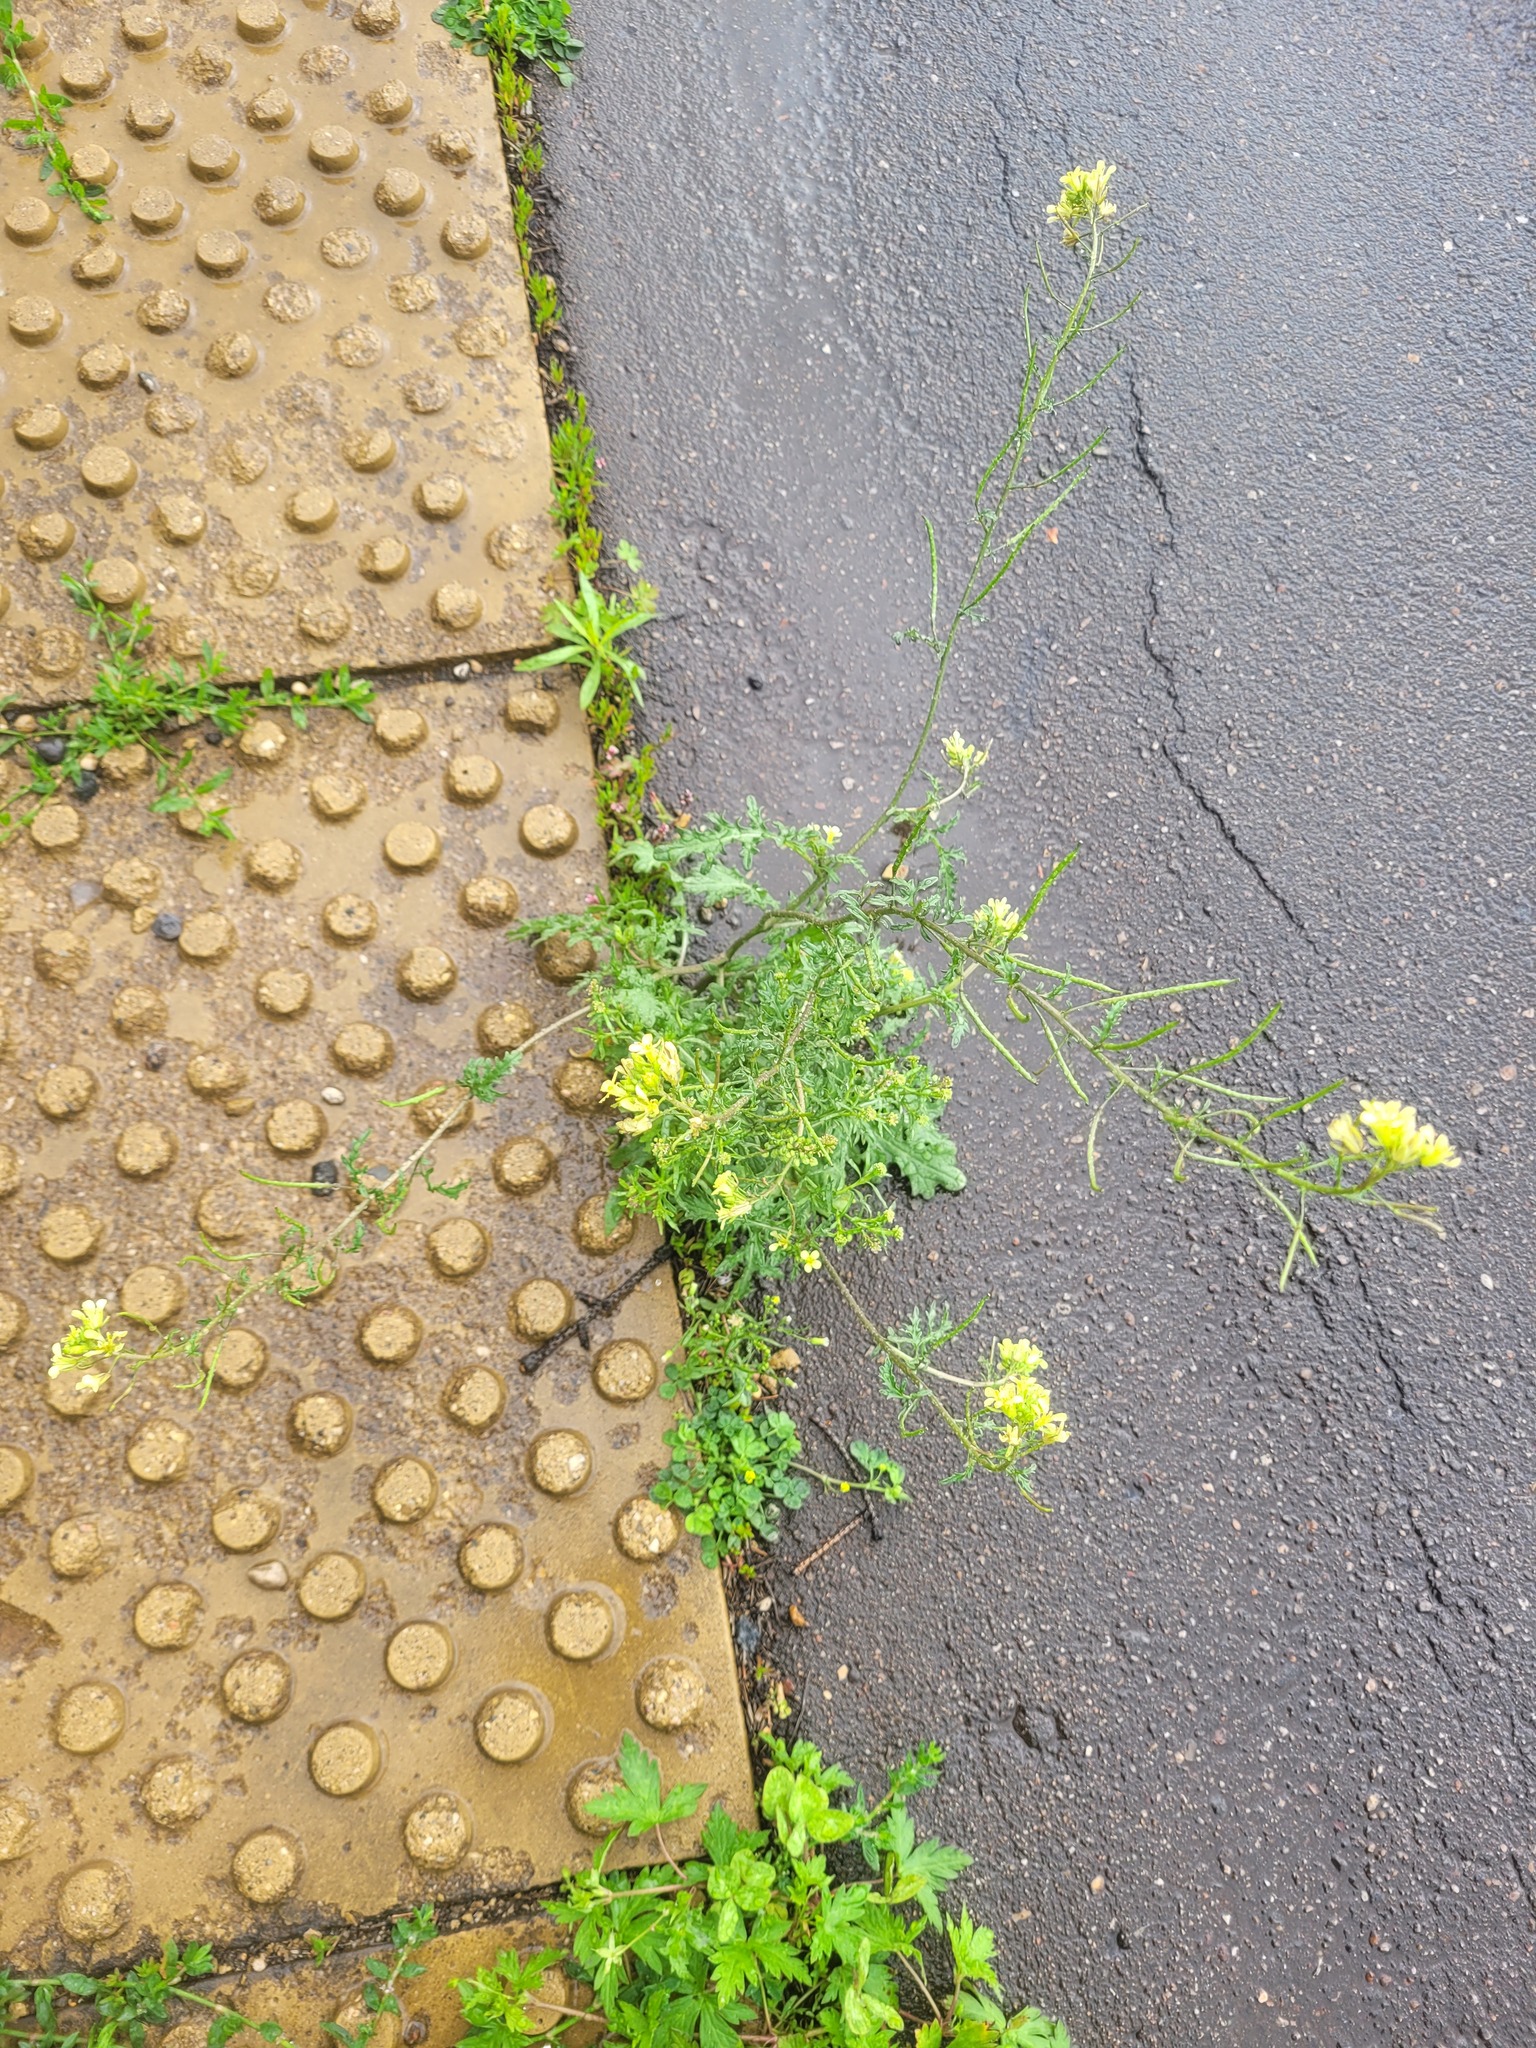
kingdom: Plantae
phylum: Tracheophyta
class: Magnoliopsida
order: Brassicales
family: Brassicaceae
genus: Erucastrum
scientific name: Erucastrum gallicum
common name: Hairy rocket
